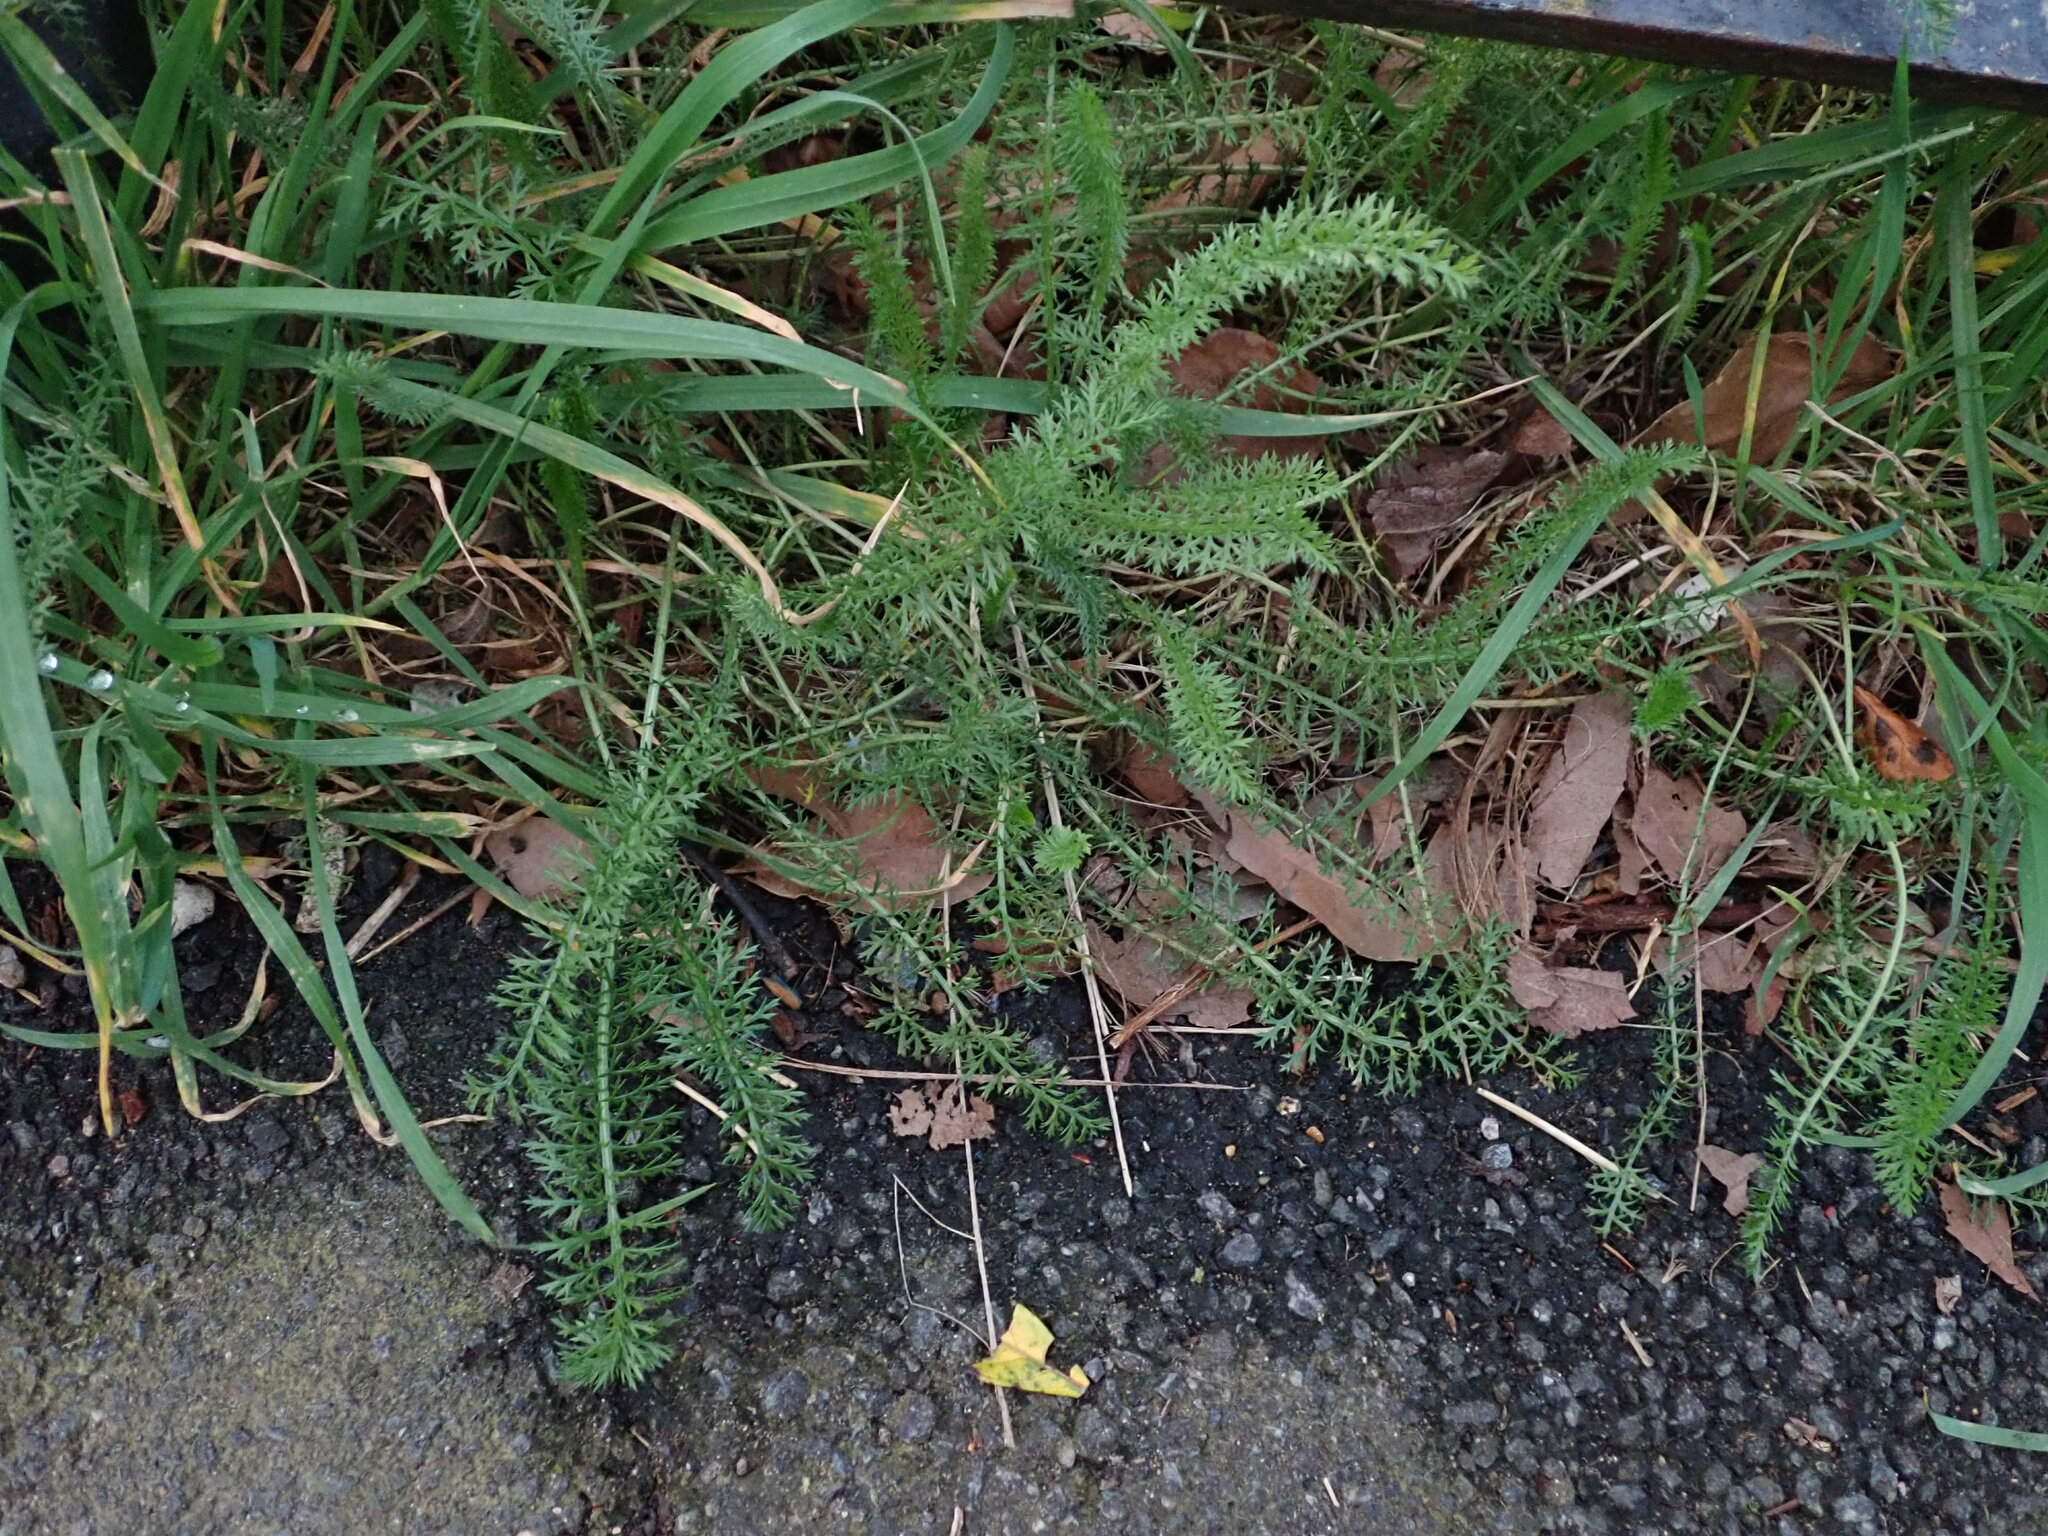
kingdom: Plantae
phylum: Tracheophyta
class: Magnoliopsida
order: Asterales
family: Asteraceae
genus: Achillea
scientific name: Achillea millefolium
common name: Yarrow
